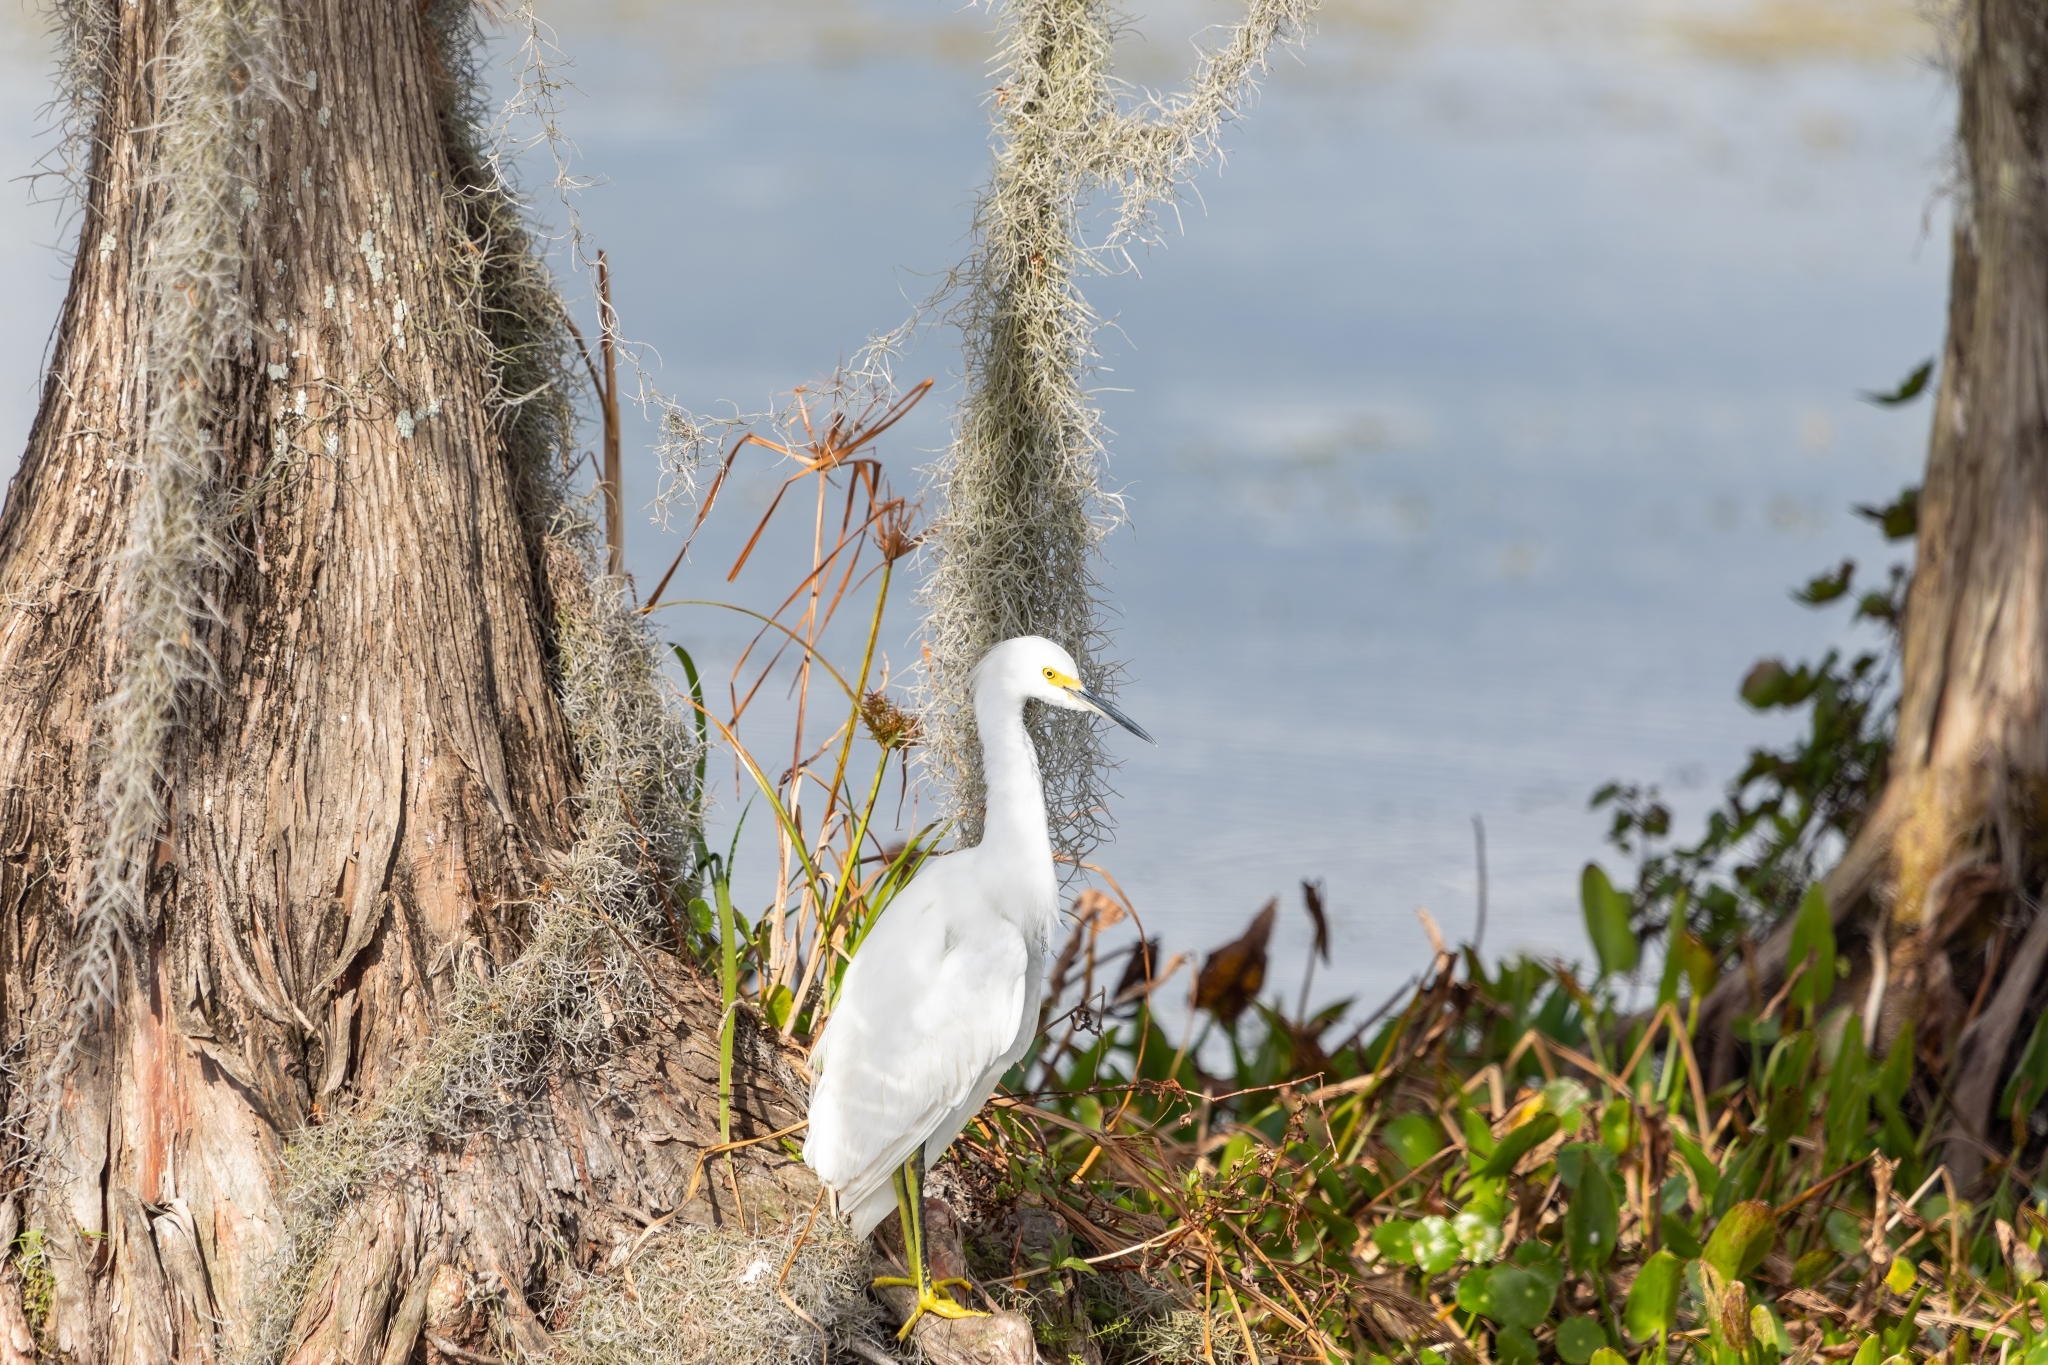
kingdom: Animalia
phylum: Chordata
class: Aves
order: Pelecaniformes
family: Ardeidae
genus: Egretta
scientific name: Egretta thula
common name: Snowy egret
